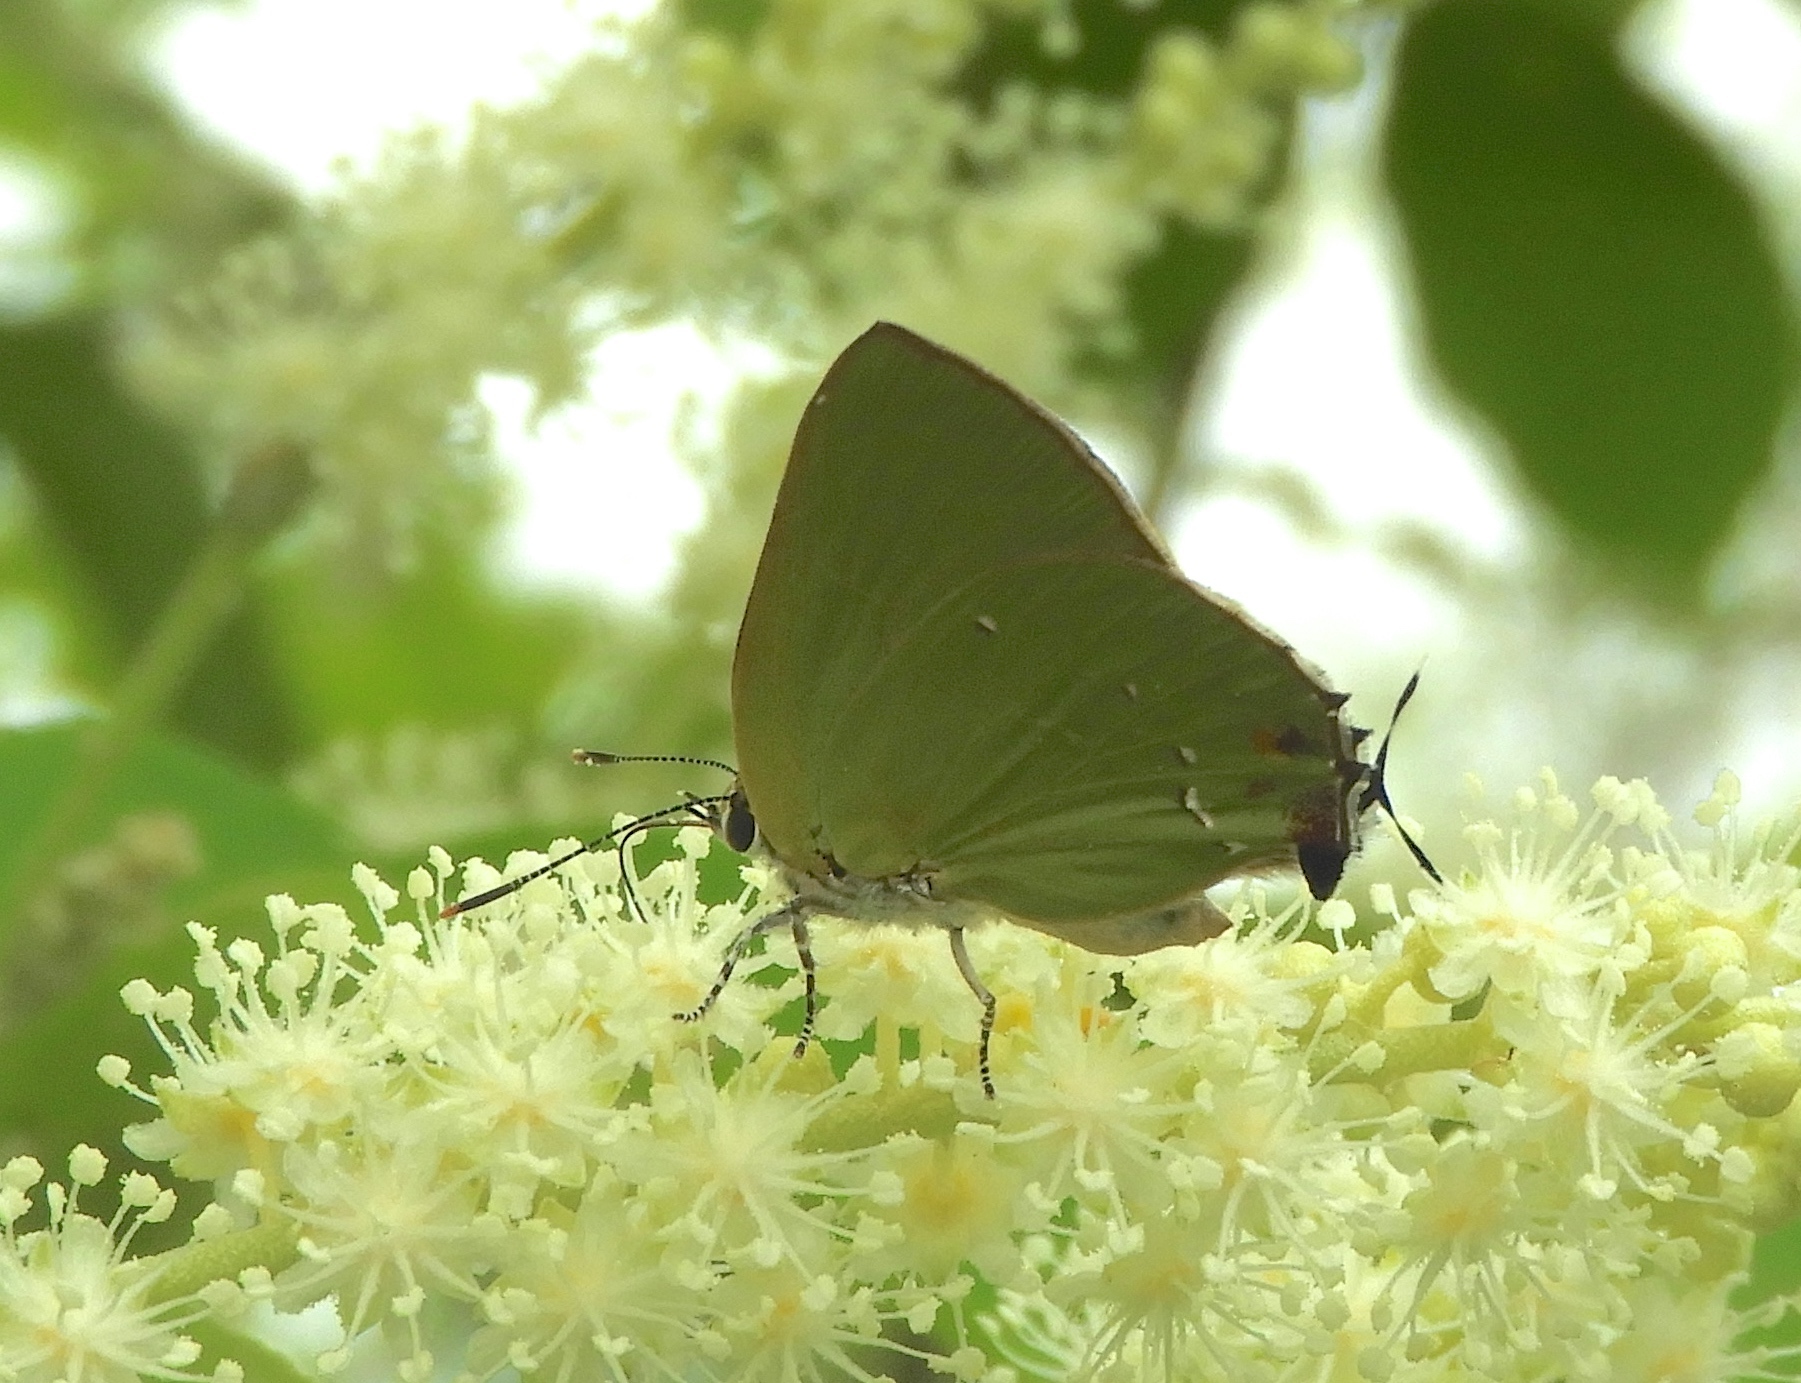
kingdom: Animalia
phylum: Arthropoda
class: Insecta
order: Lepidoptera
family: Lycaenidae
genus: Cyanophrys
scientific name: Cyanophrys
